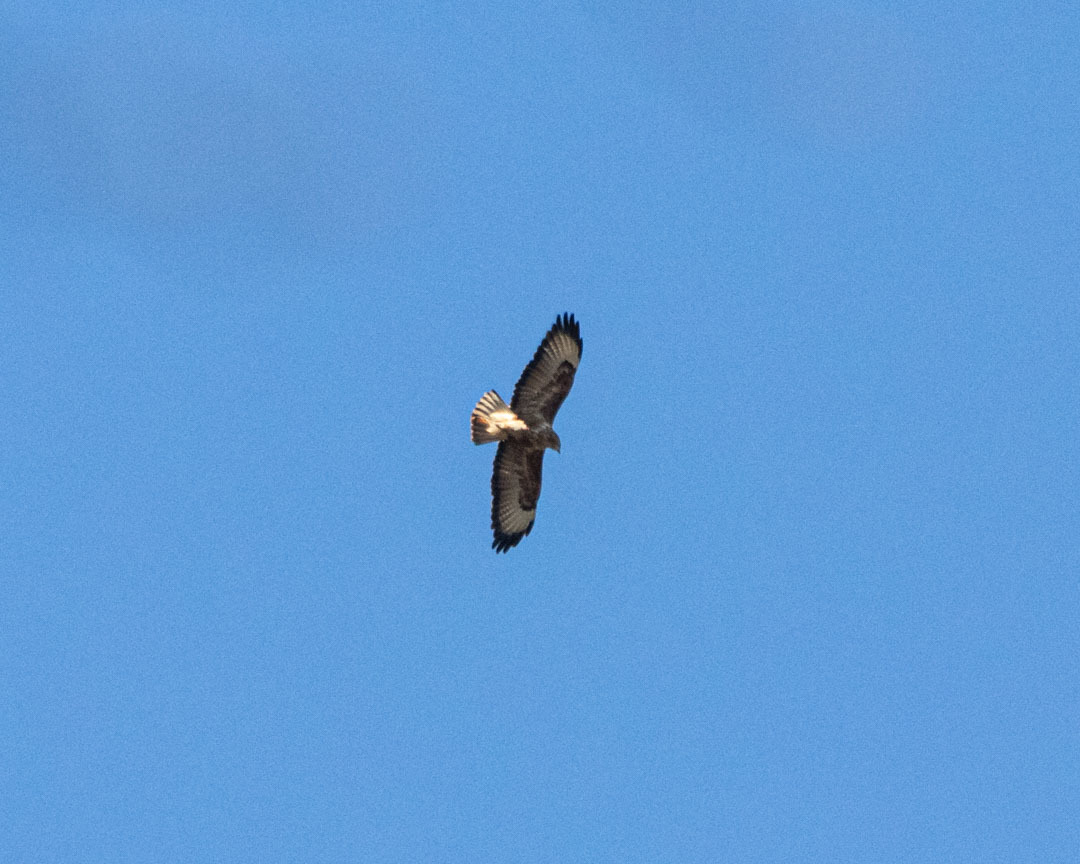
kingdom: Animalia
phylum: Chordata
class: Aves
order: Accipitriformes
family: Accipitridae
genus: Buteo
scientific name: Buteo buteo
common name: Common buzzard
